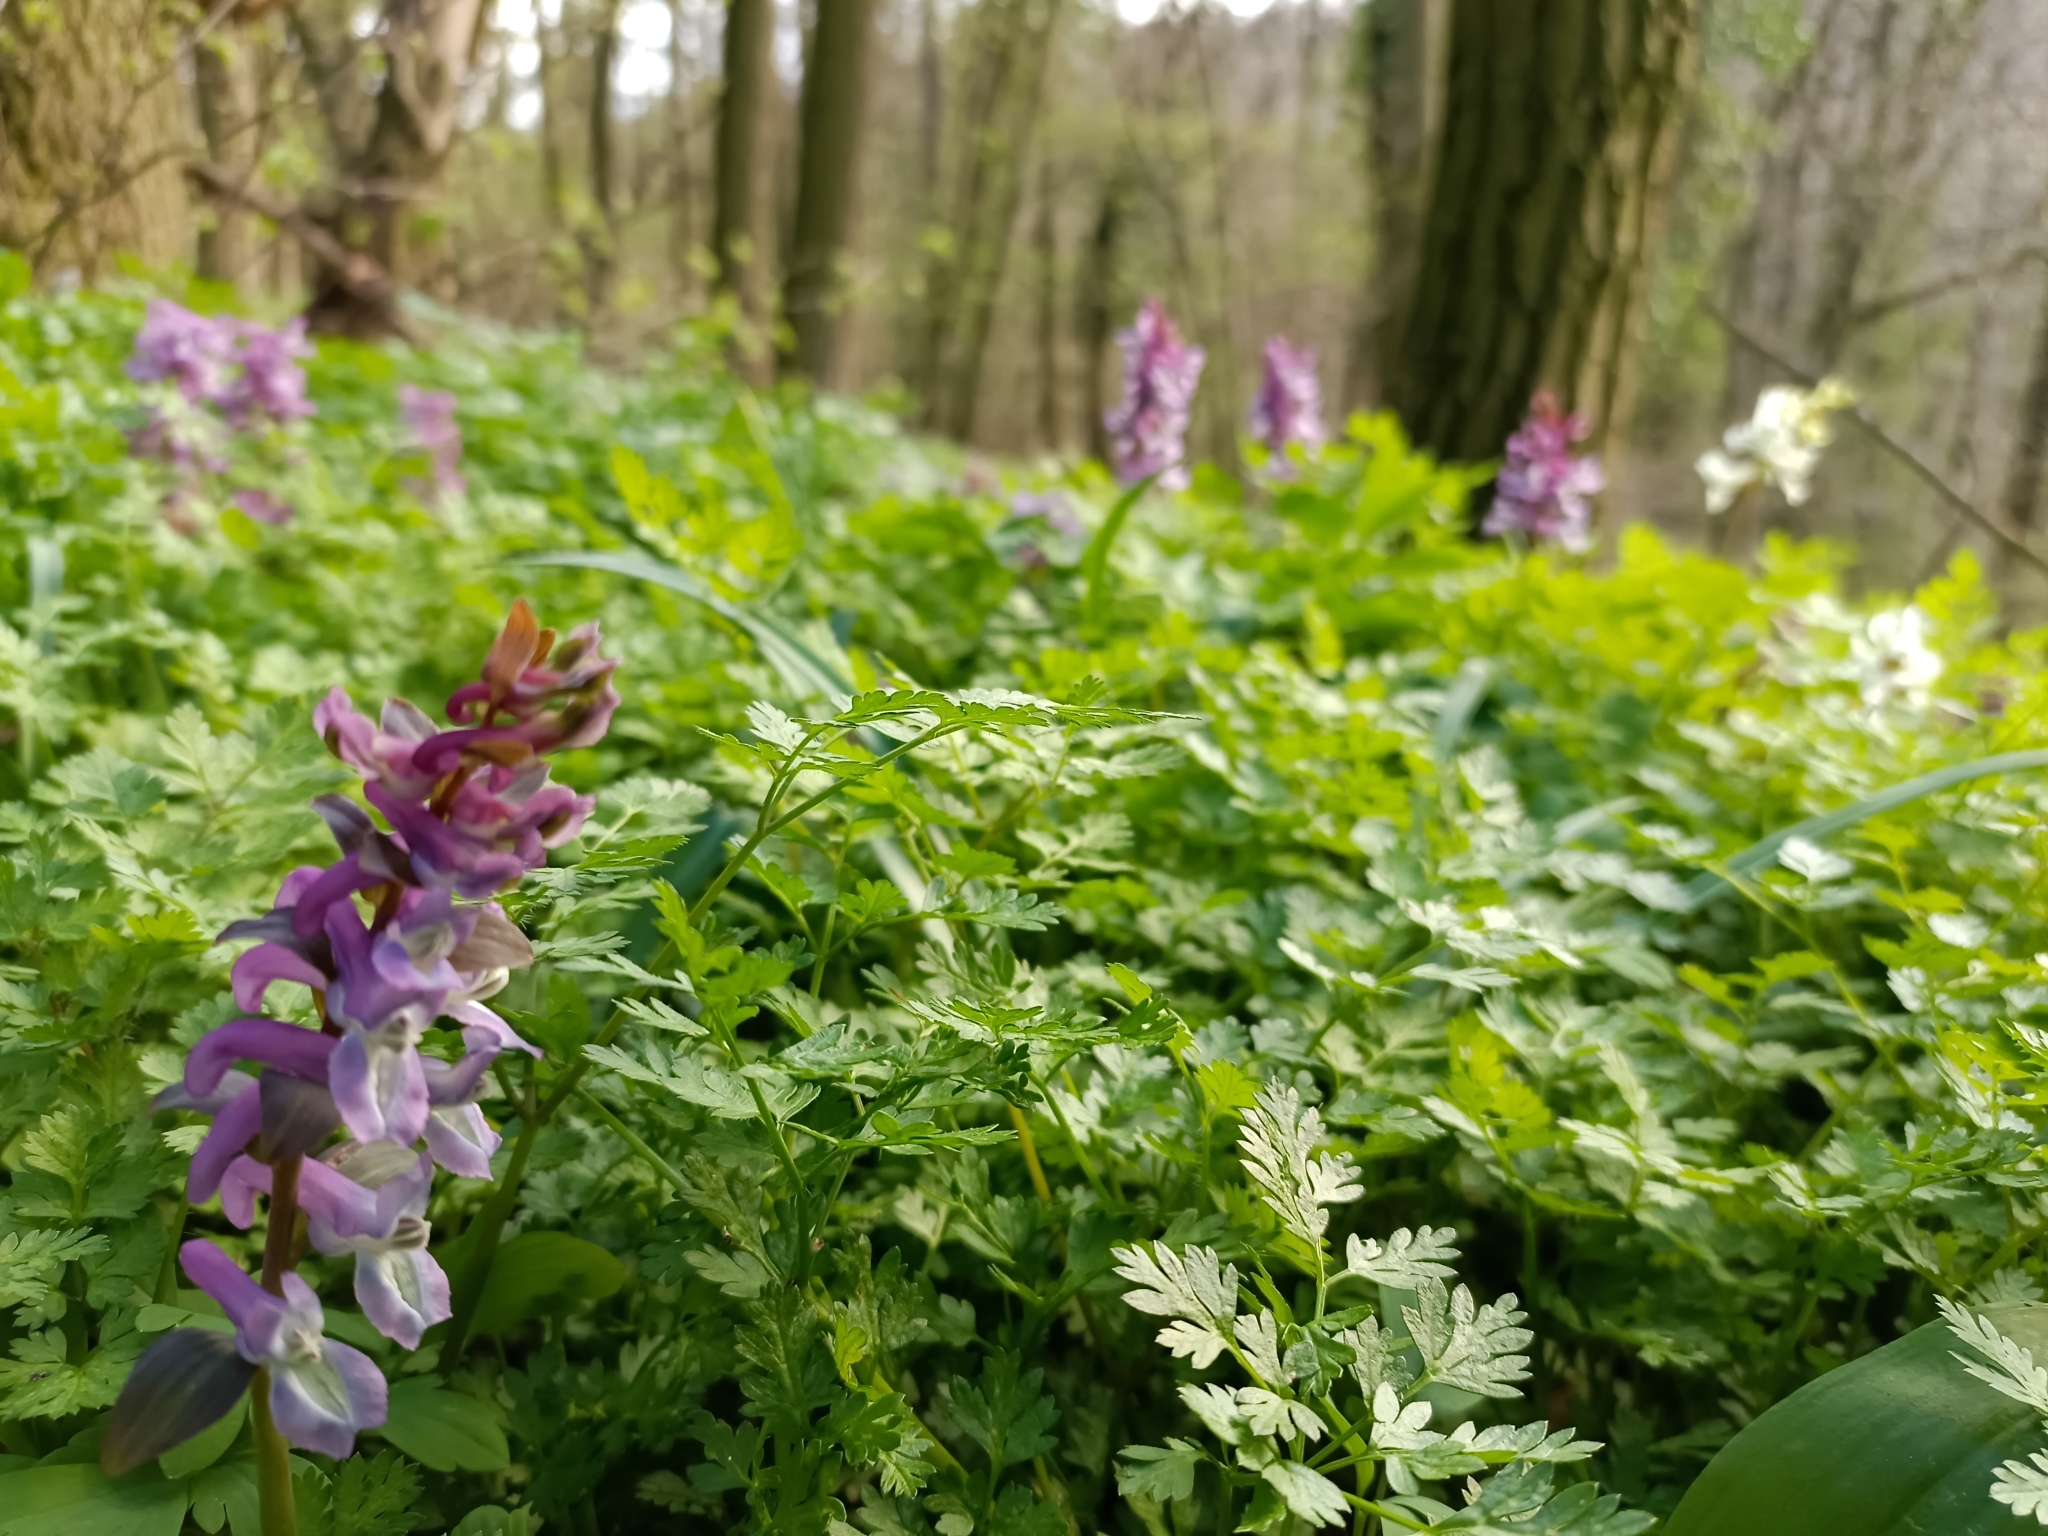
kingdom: Plantae
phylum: Tracheophyta
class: Magnoliopsida
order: Ranunculales
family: Papaveraceae
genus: Corydalis
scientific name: Corydalis cava
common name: Hollowroot
